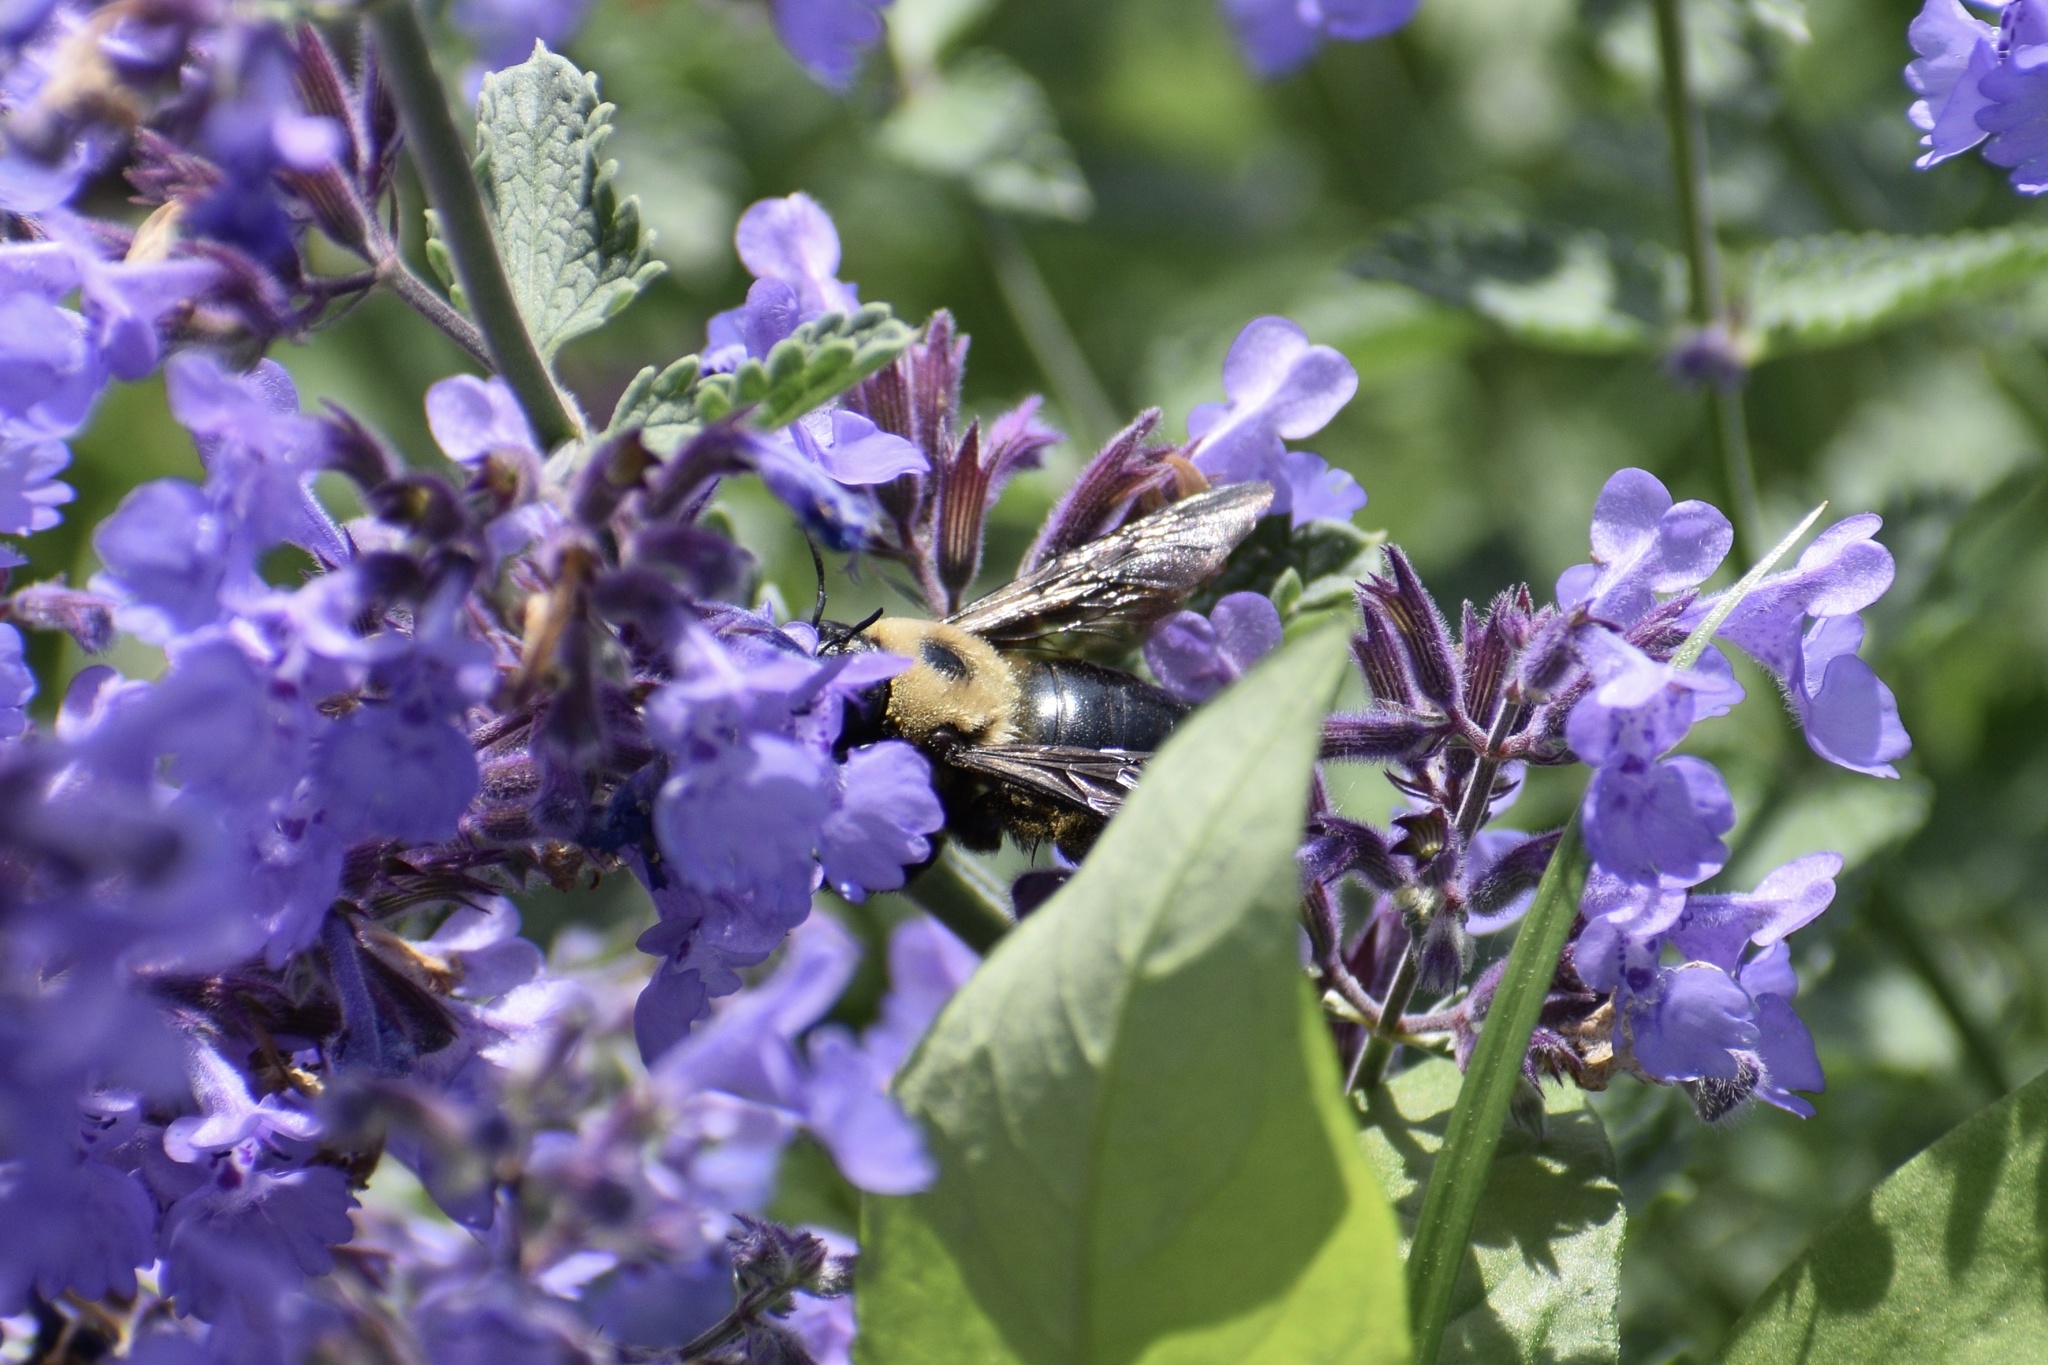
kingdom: Animalia
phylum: Arthropoda
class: Insecta
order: Hymenoptera
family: Apidae
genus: Xylocopa
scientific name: Xylocopa virginica
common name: Carpenter bee
